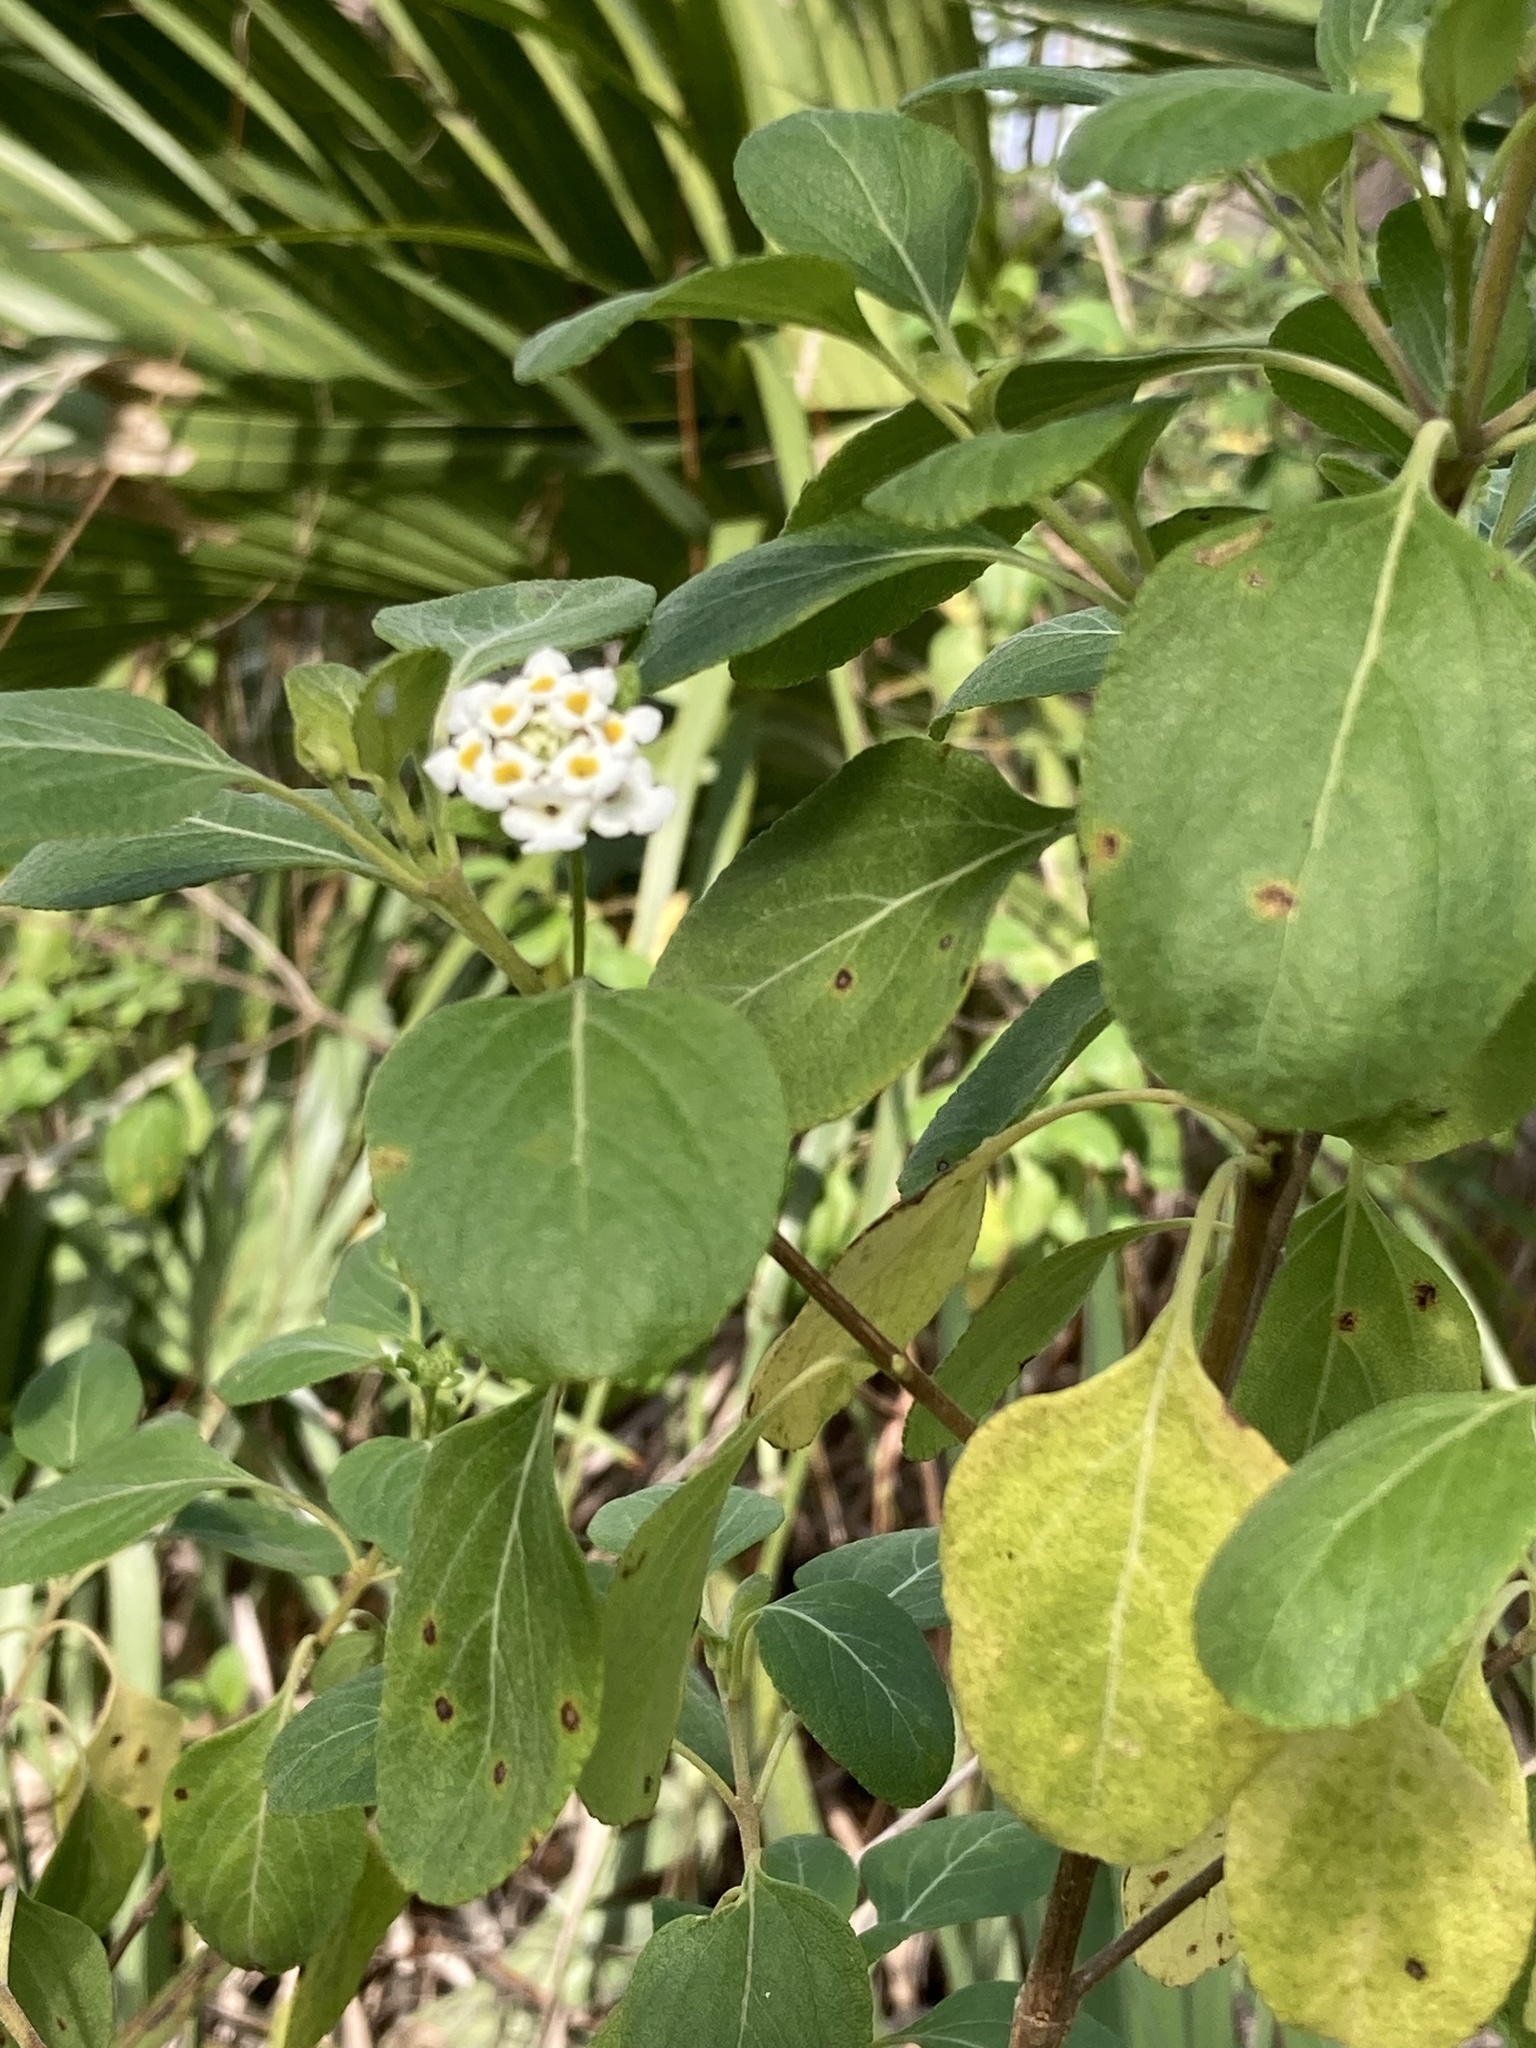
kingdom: Plantae
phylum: Tracheophyta
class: Magnoliopsida
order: Lamiales
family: Verbenaceae
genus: Lantana
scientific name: Lantana involucrata
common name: Black sage
